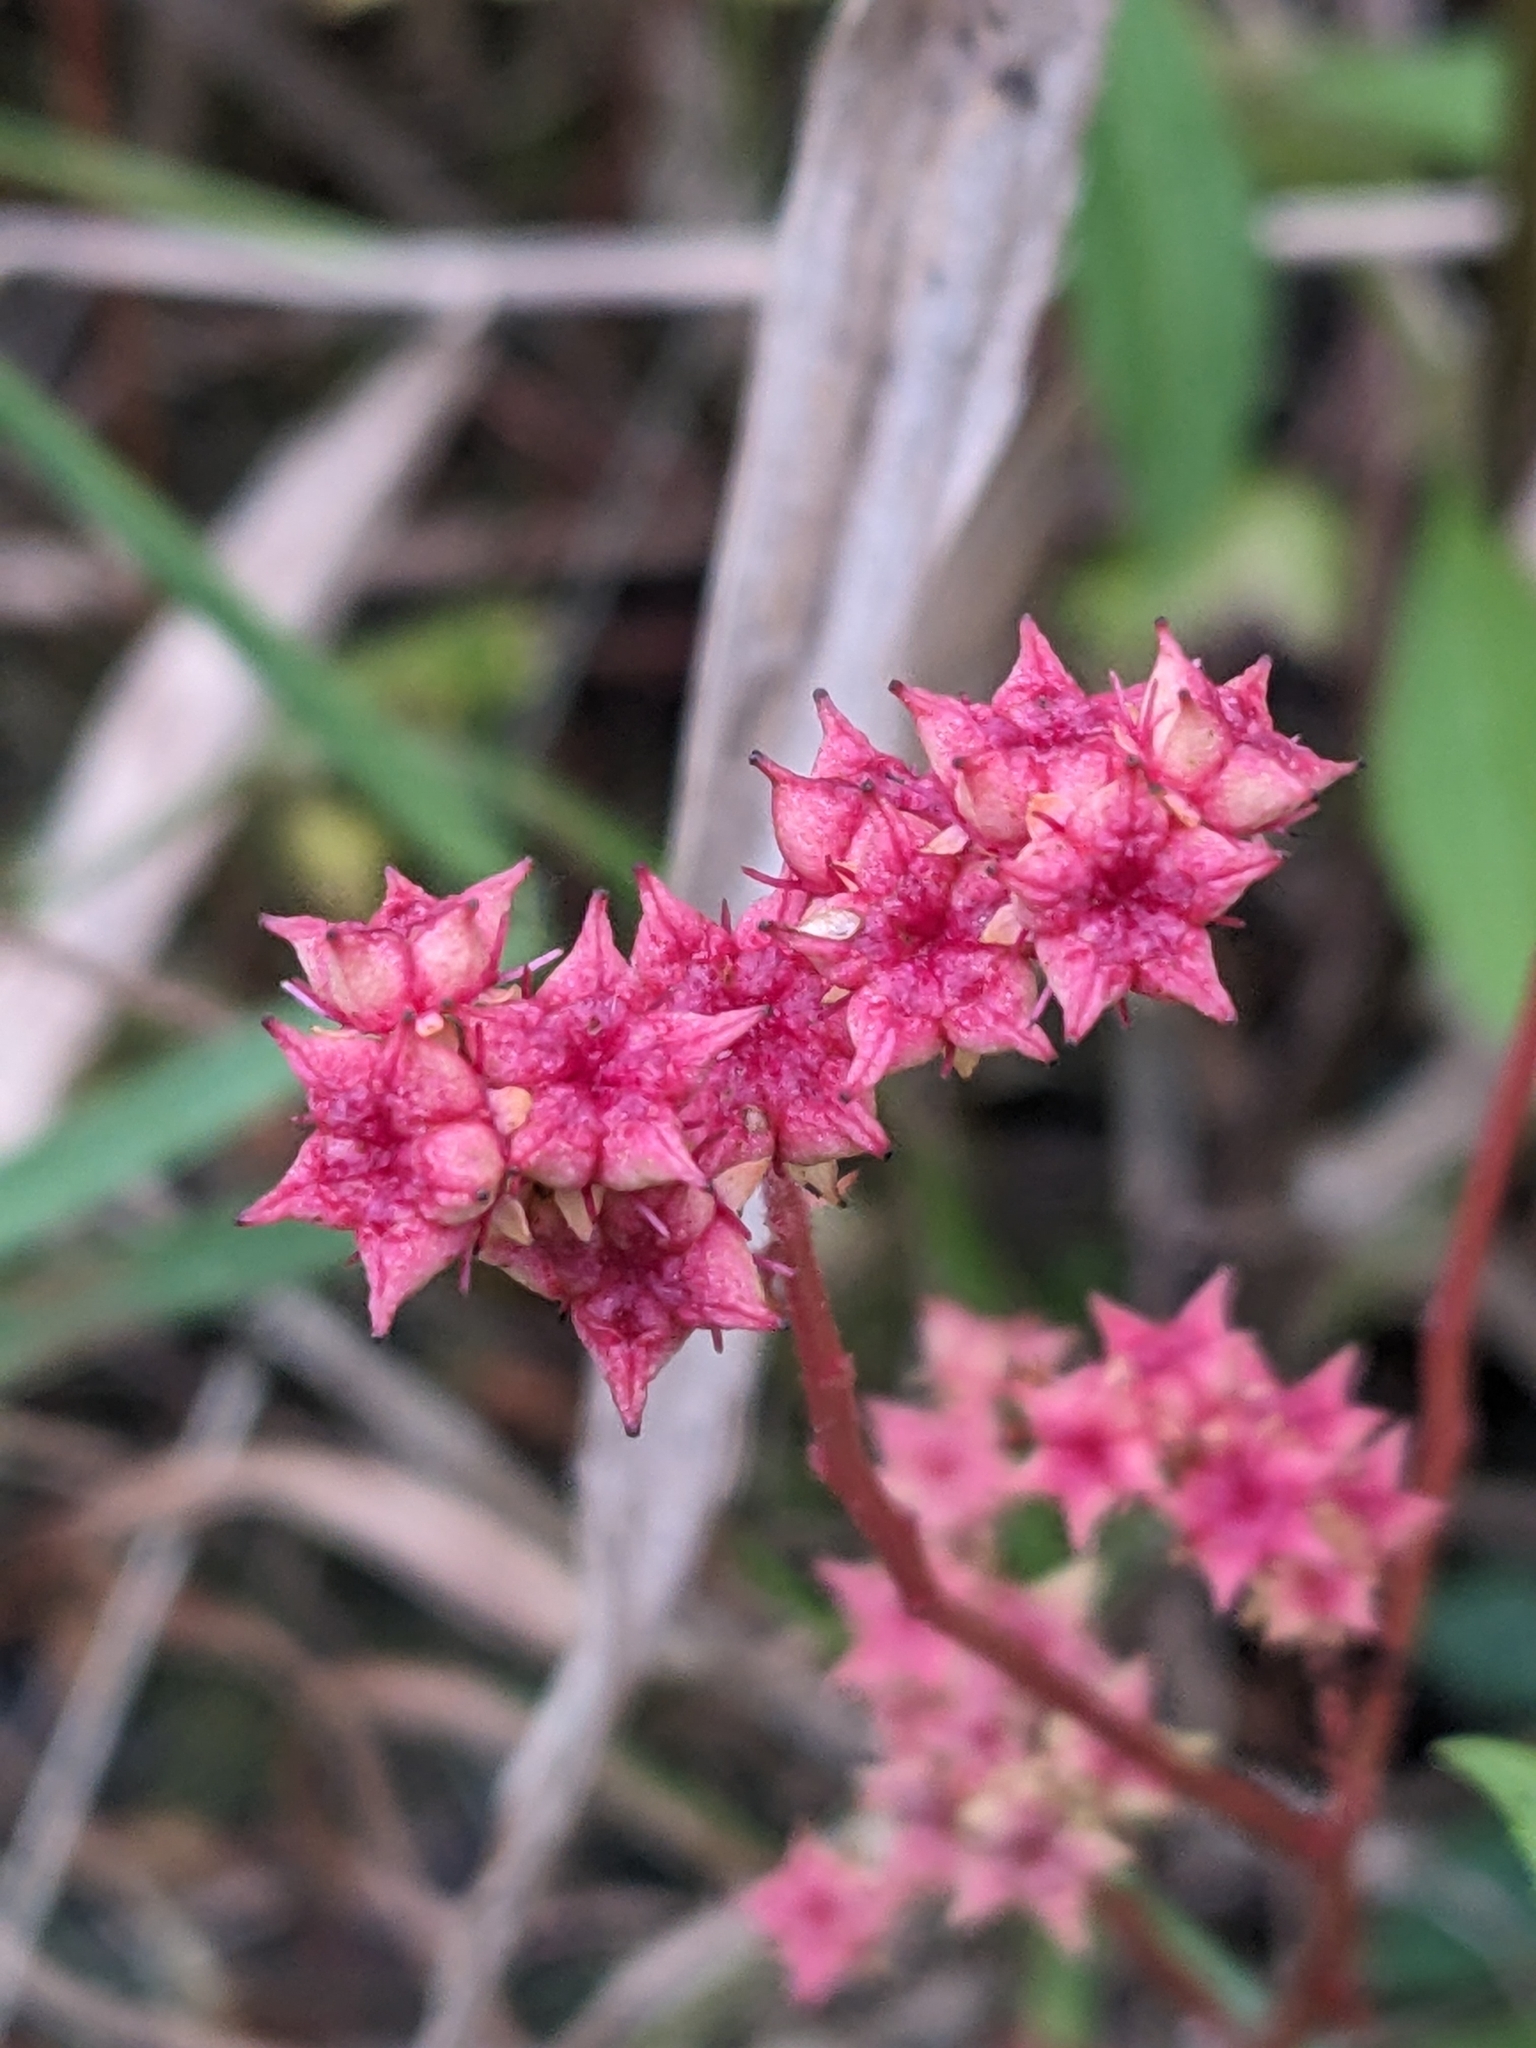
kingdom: Plantae
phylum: Tracheophyta
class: Magnoliopsida
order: Saxifragales
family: Penthoraceae
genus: Penthorum
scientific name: Penthorum sedoides
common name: Ditch stonecrop
